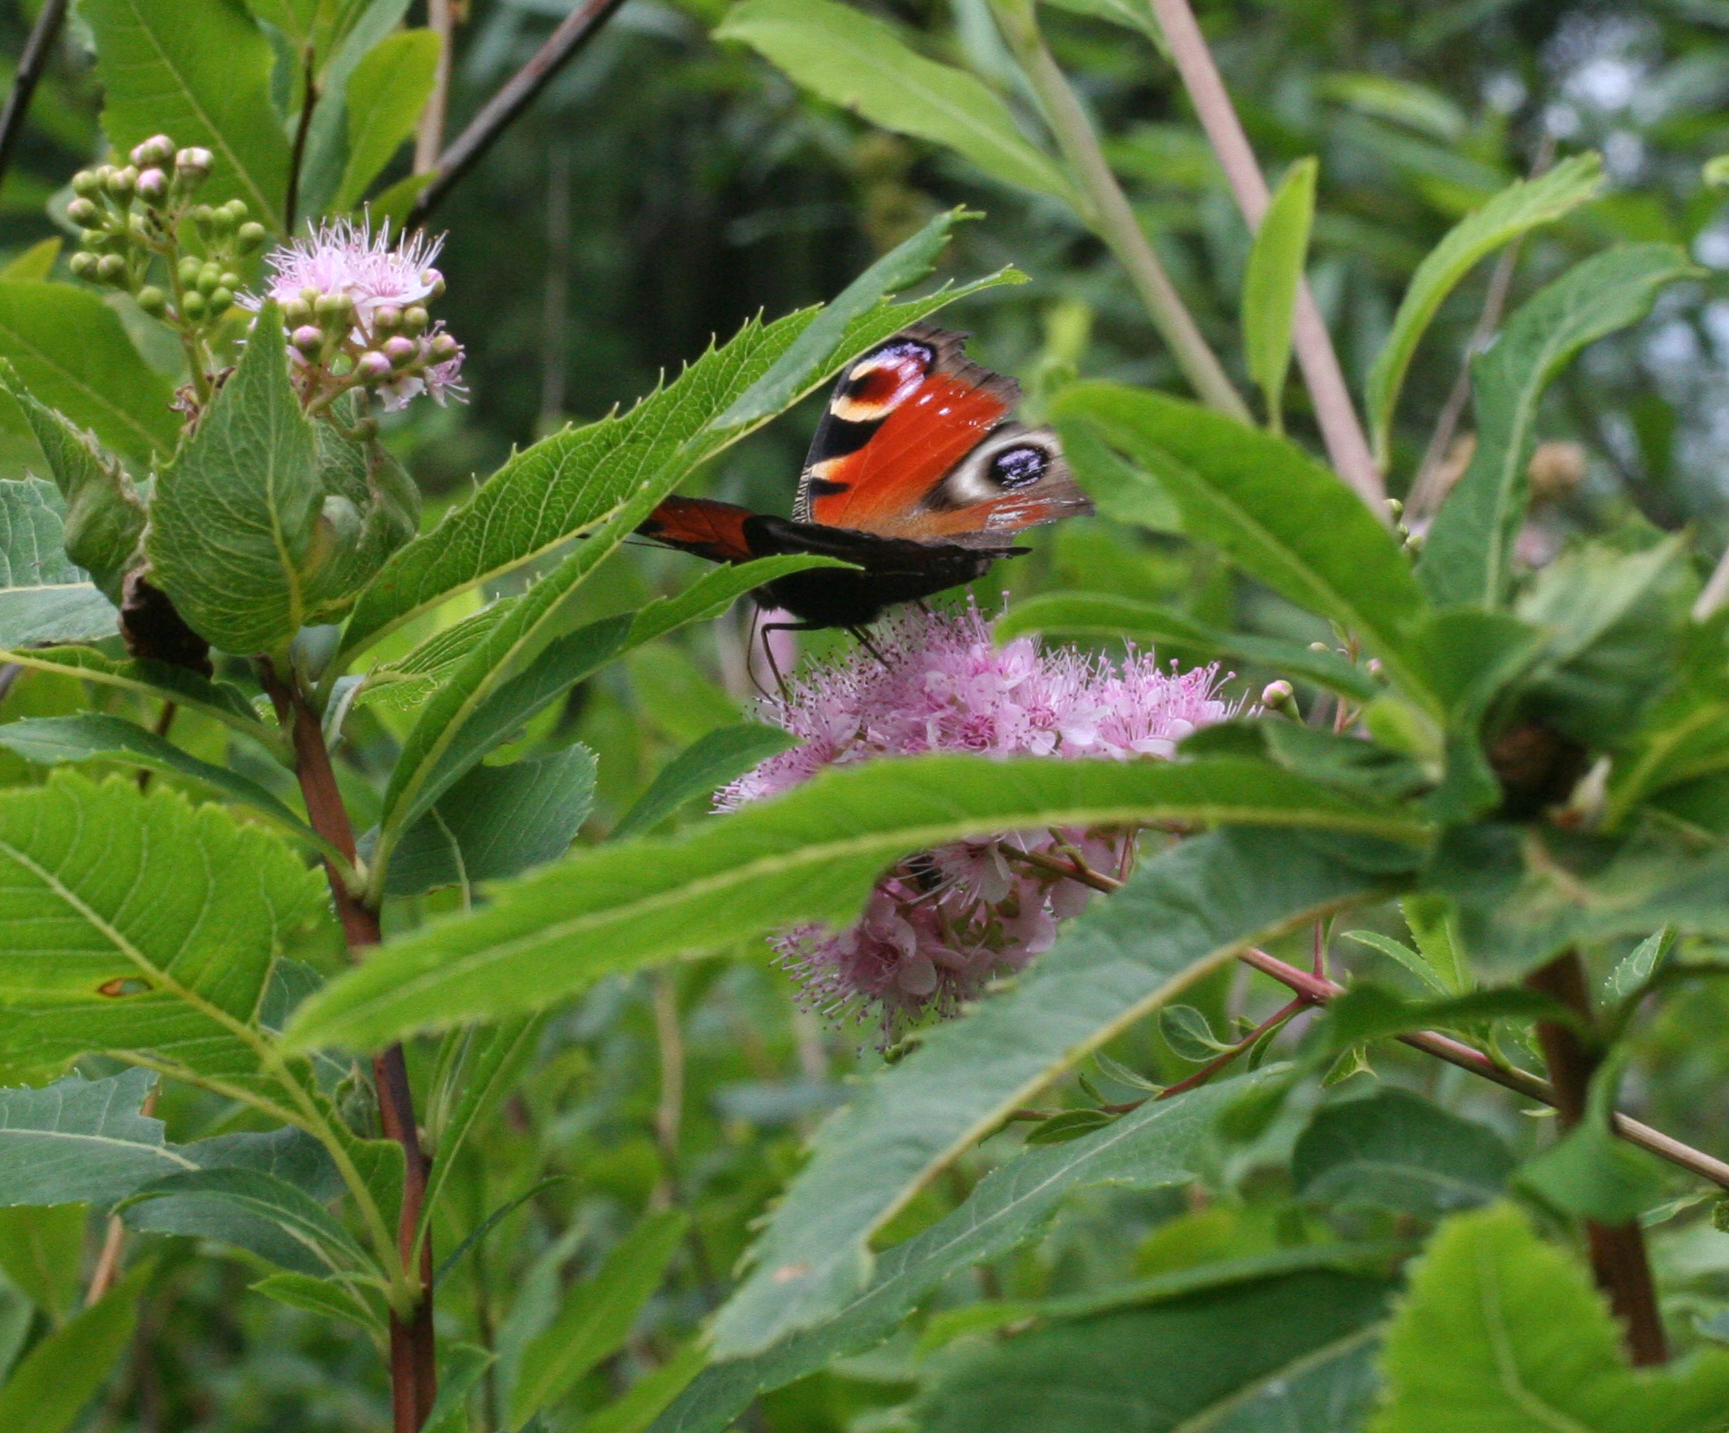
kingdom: Animalia
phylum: Arthropoda
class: Insecta
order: Lepidoptera
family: Nymphalidae
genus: Aglais
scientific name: Aglais io
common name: Peacock
